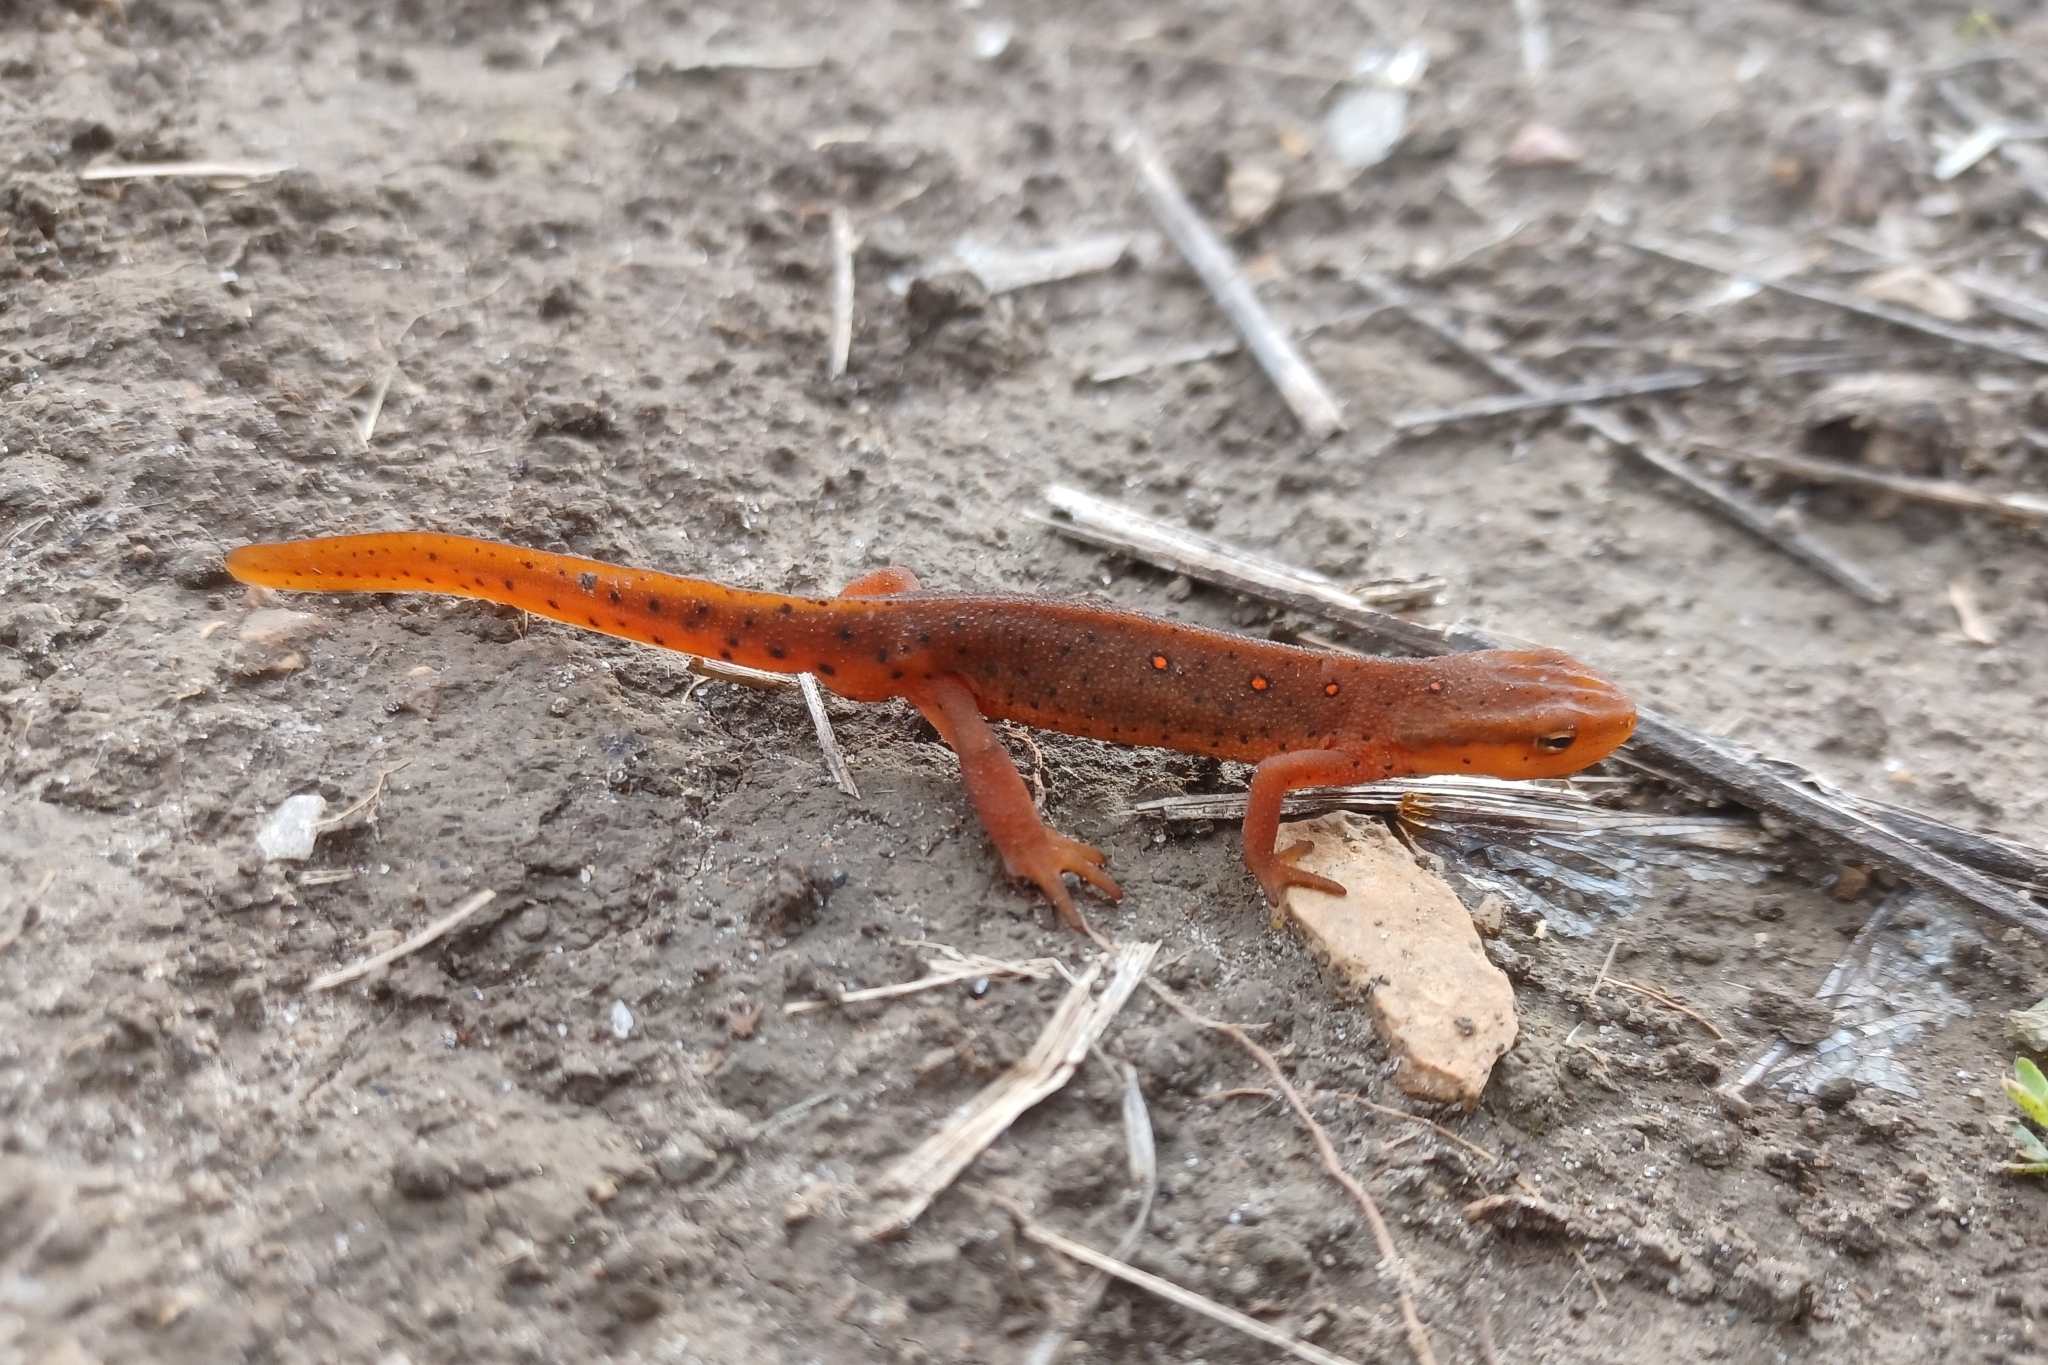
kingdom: Animalia
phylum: Chordata
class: Amphibia
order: Caudata
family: Salamandridae
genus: Notophthalmus
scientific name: Notophthalmus viridescens
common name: Eastern newt
